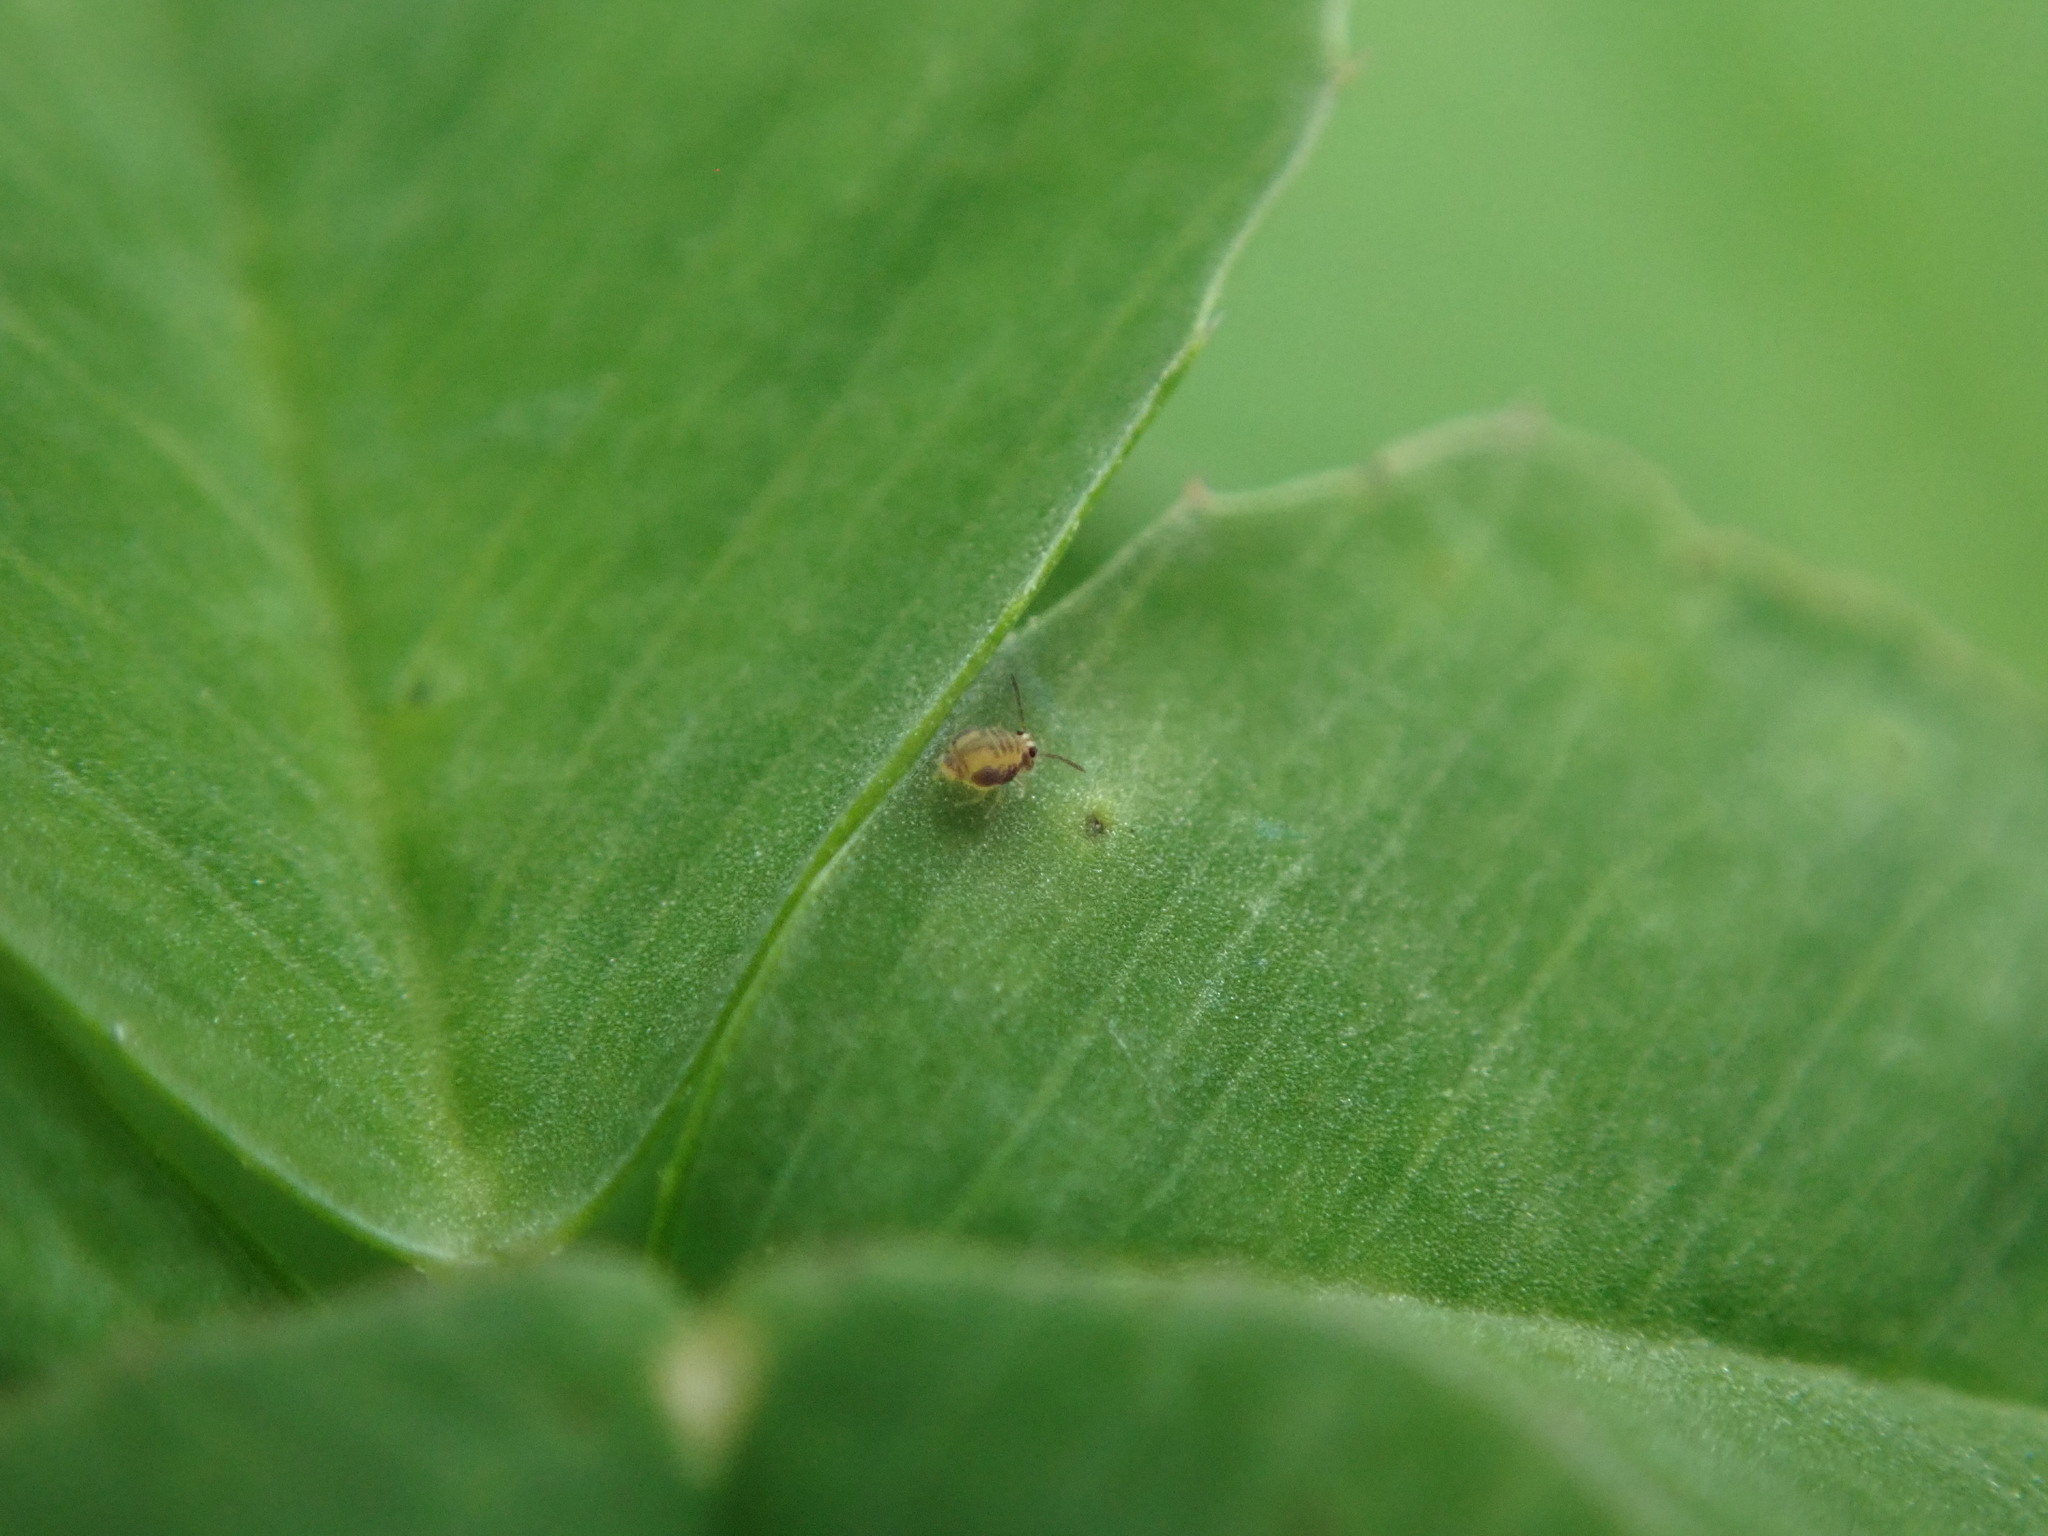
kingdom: Animalia
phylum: Arthropoda
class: Collembola
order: Symphypleona
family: Katiannidae
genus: Sminthurinus
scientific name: Sminthurinus henshawi
